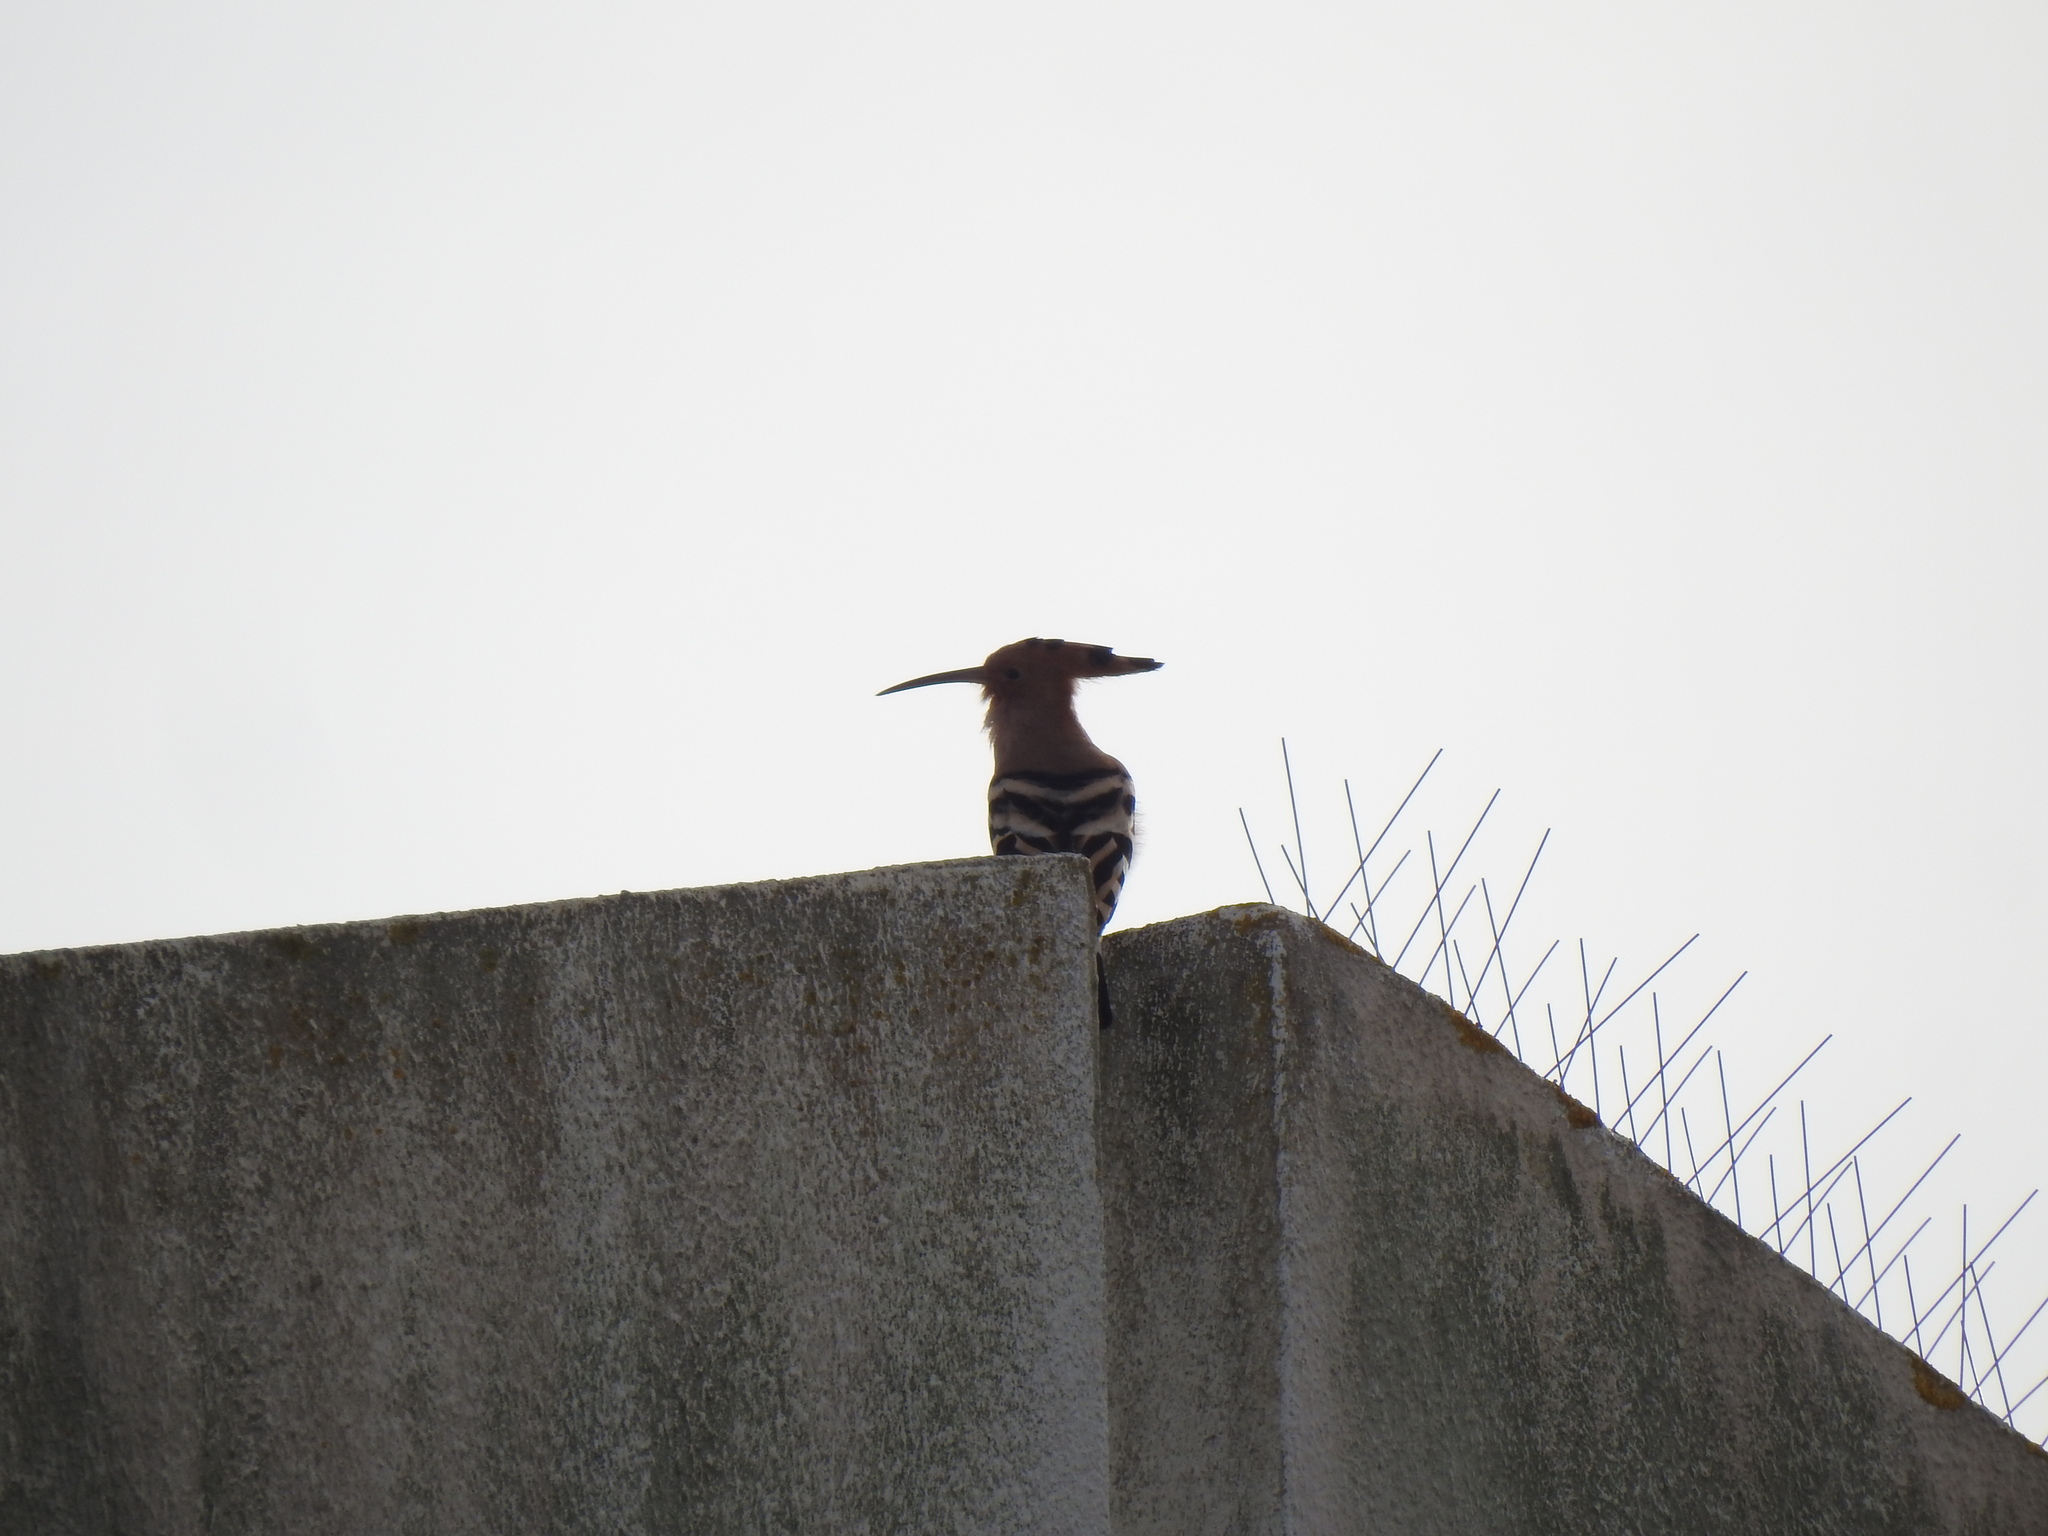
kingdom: Animalia
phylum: Chordata
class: Aves
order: Bucerotiformes
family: Upupidae
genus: Upupa
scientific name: Upupa epops
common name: Eurasian hoopoe
